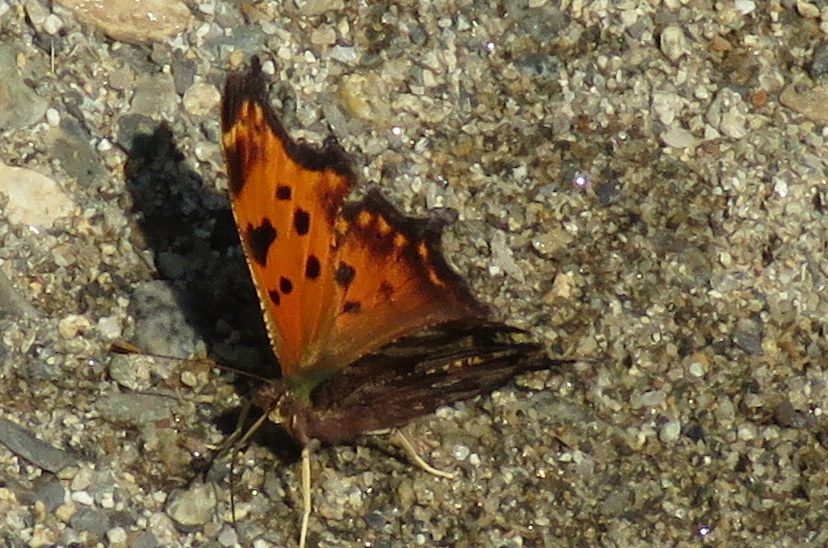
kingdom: Animalia
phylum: Arthropoda
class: Insecta
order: Lepidoptera
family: Nymphalidae
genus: Polygonia
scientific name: Polygonia comma
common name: Eastern comma
